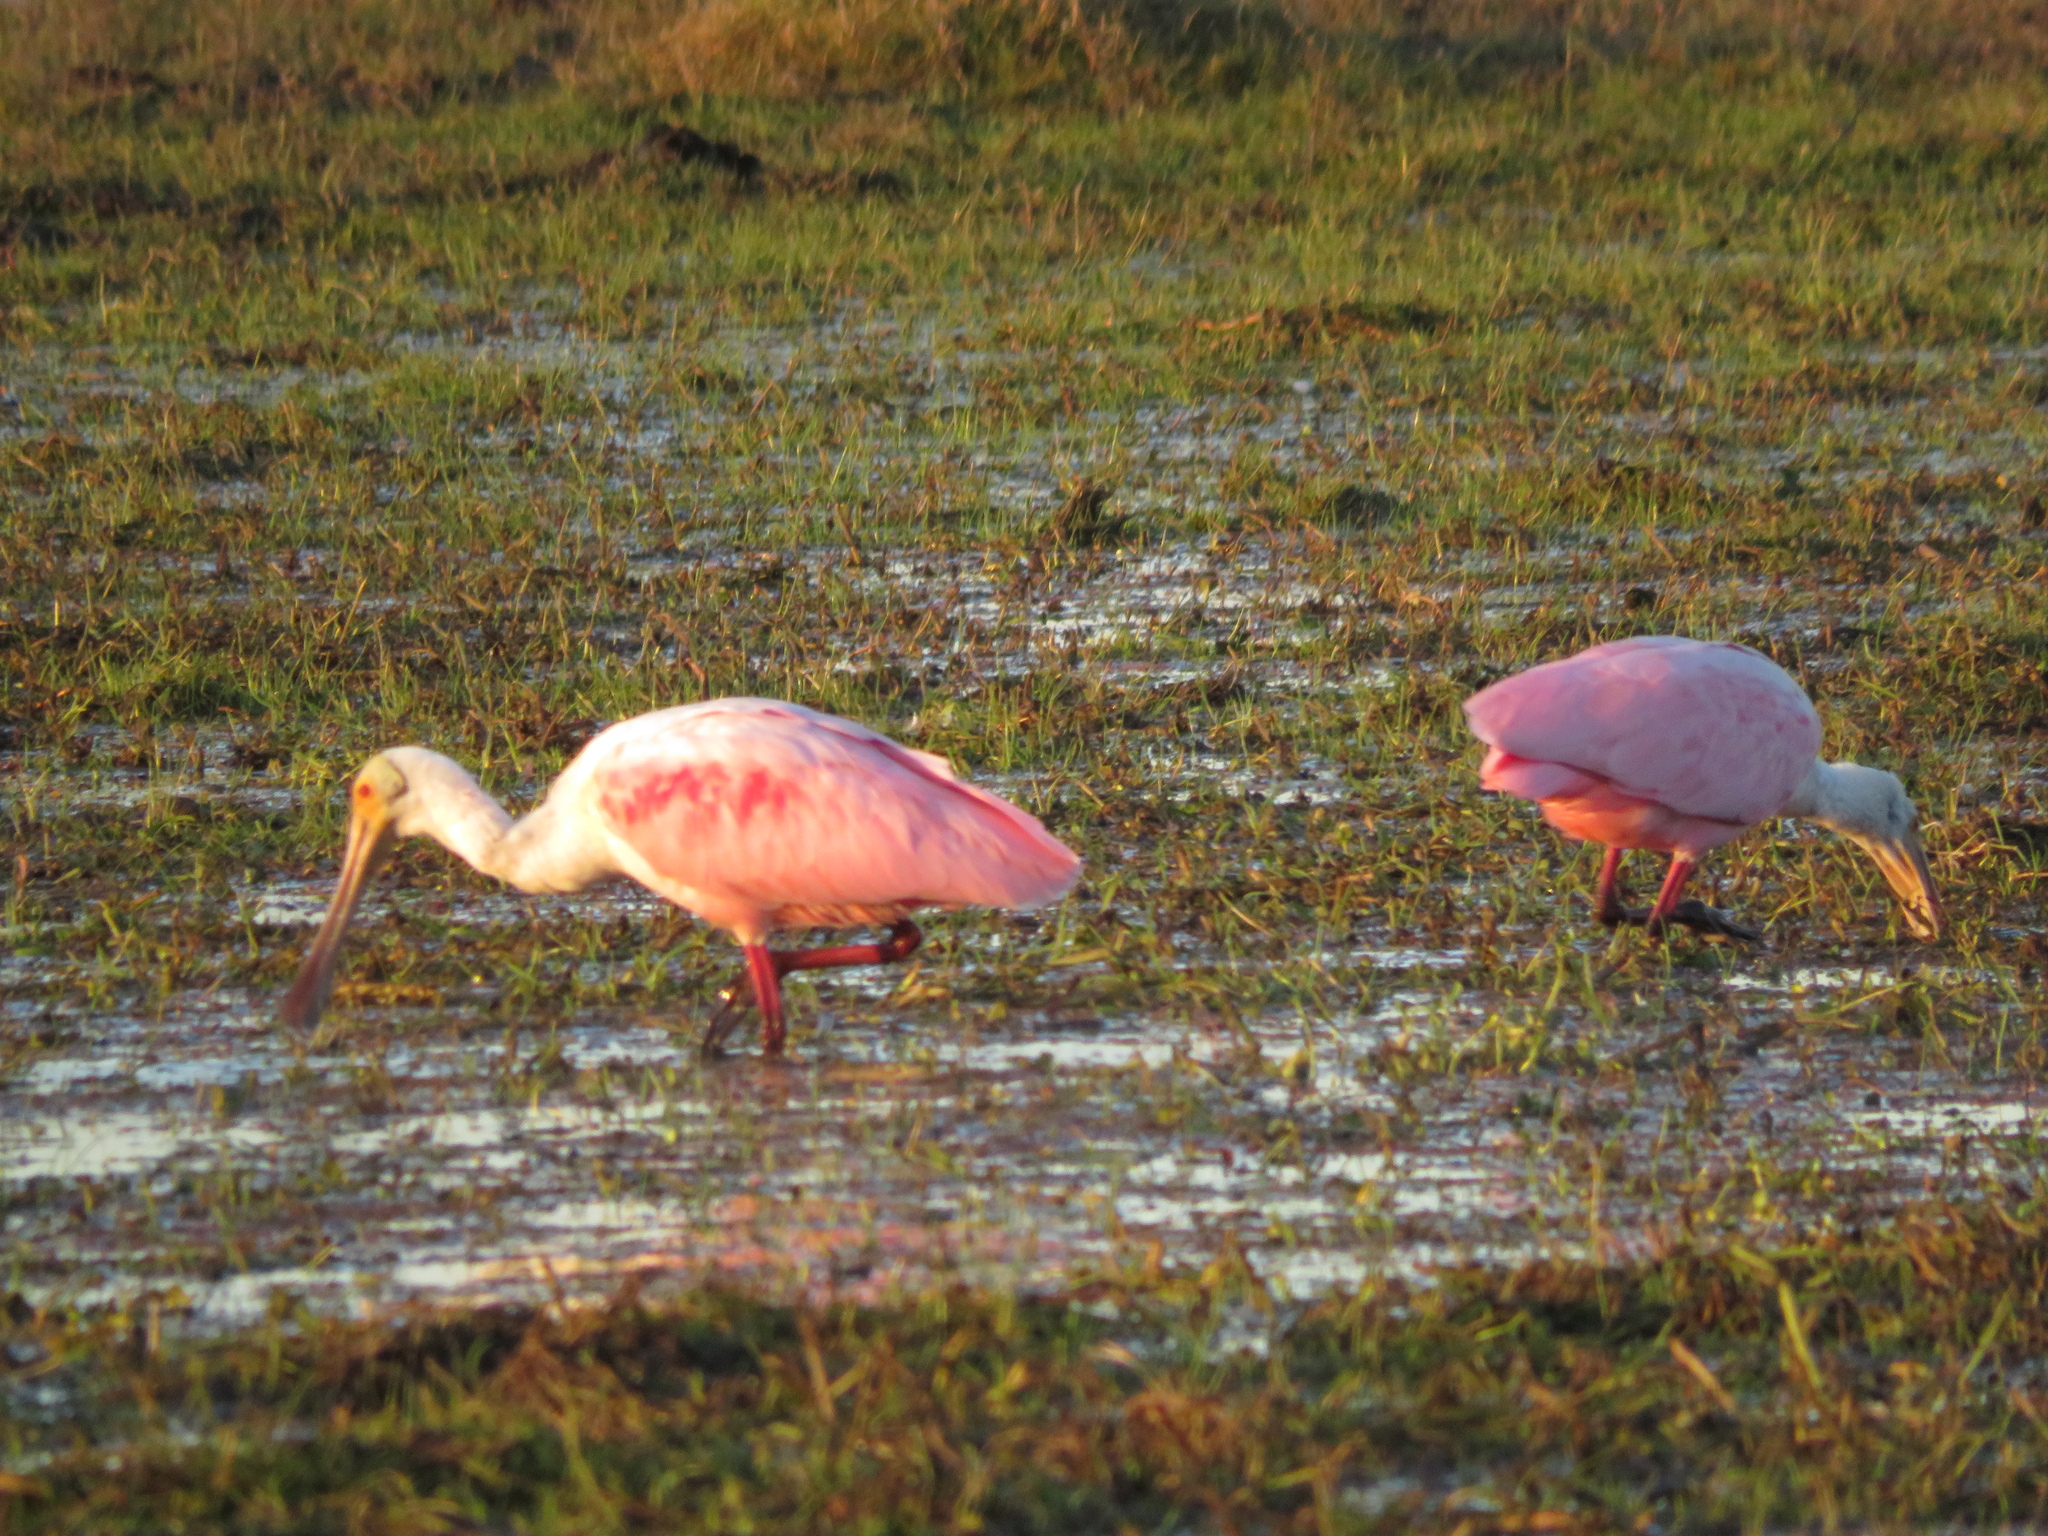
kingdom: Animalia
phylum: Chordata
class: Aves
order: Pelecaniformes
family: Threskiornithidae
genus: Platalea
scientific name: Platalea ajaja
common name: Roseate spoonbill
